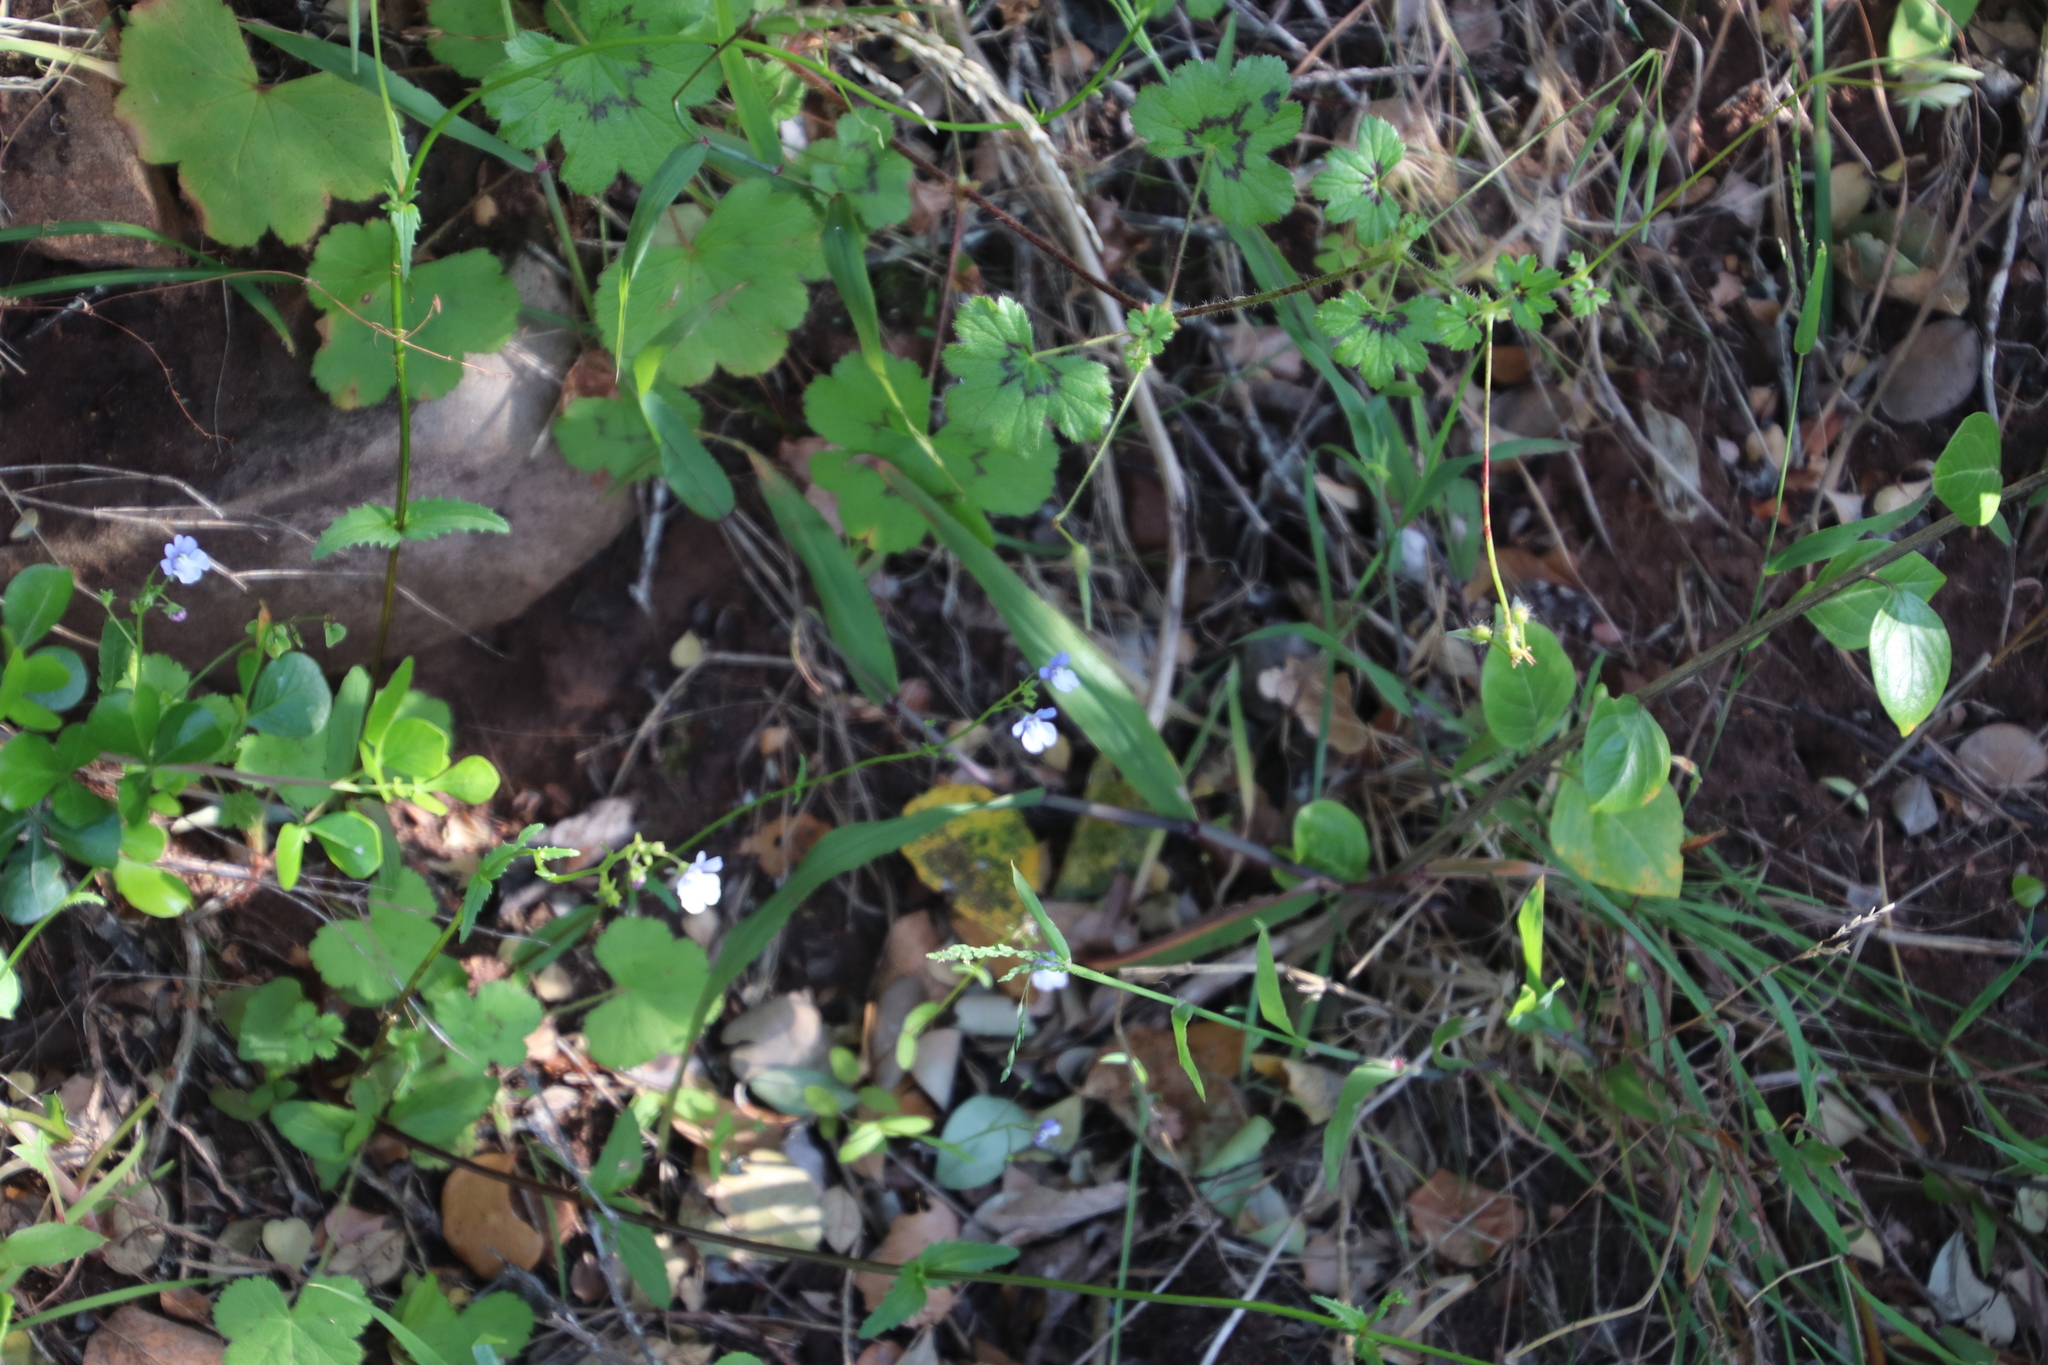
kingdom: Plantae
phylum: Tracheophyta
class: Magnoliopsida
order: Geraniales
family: Geraniaceae
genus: Pelargonium
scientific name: Pelargonium elongatum
